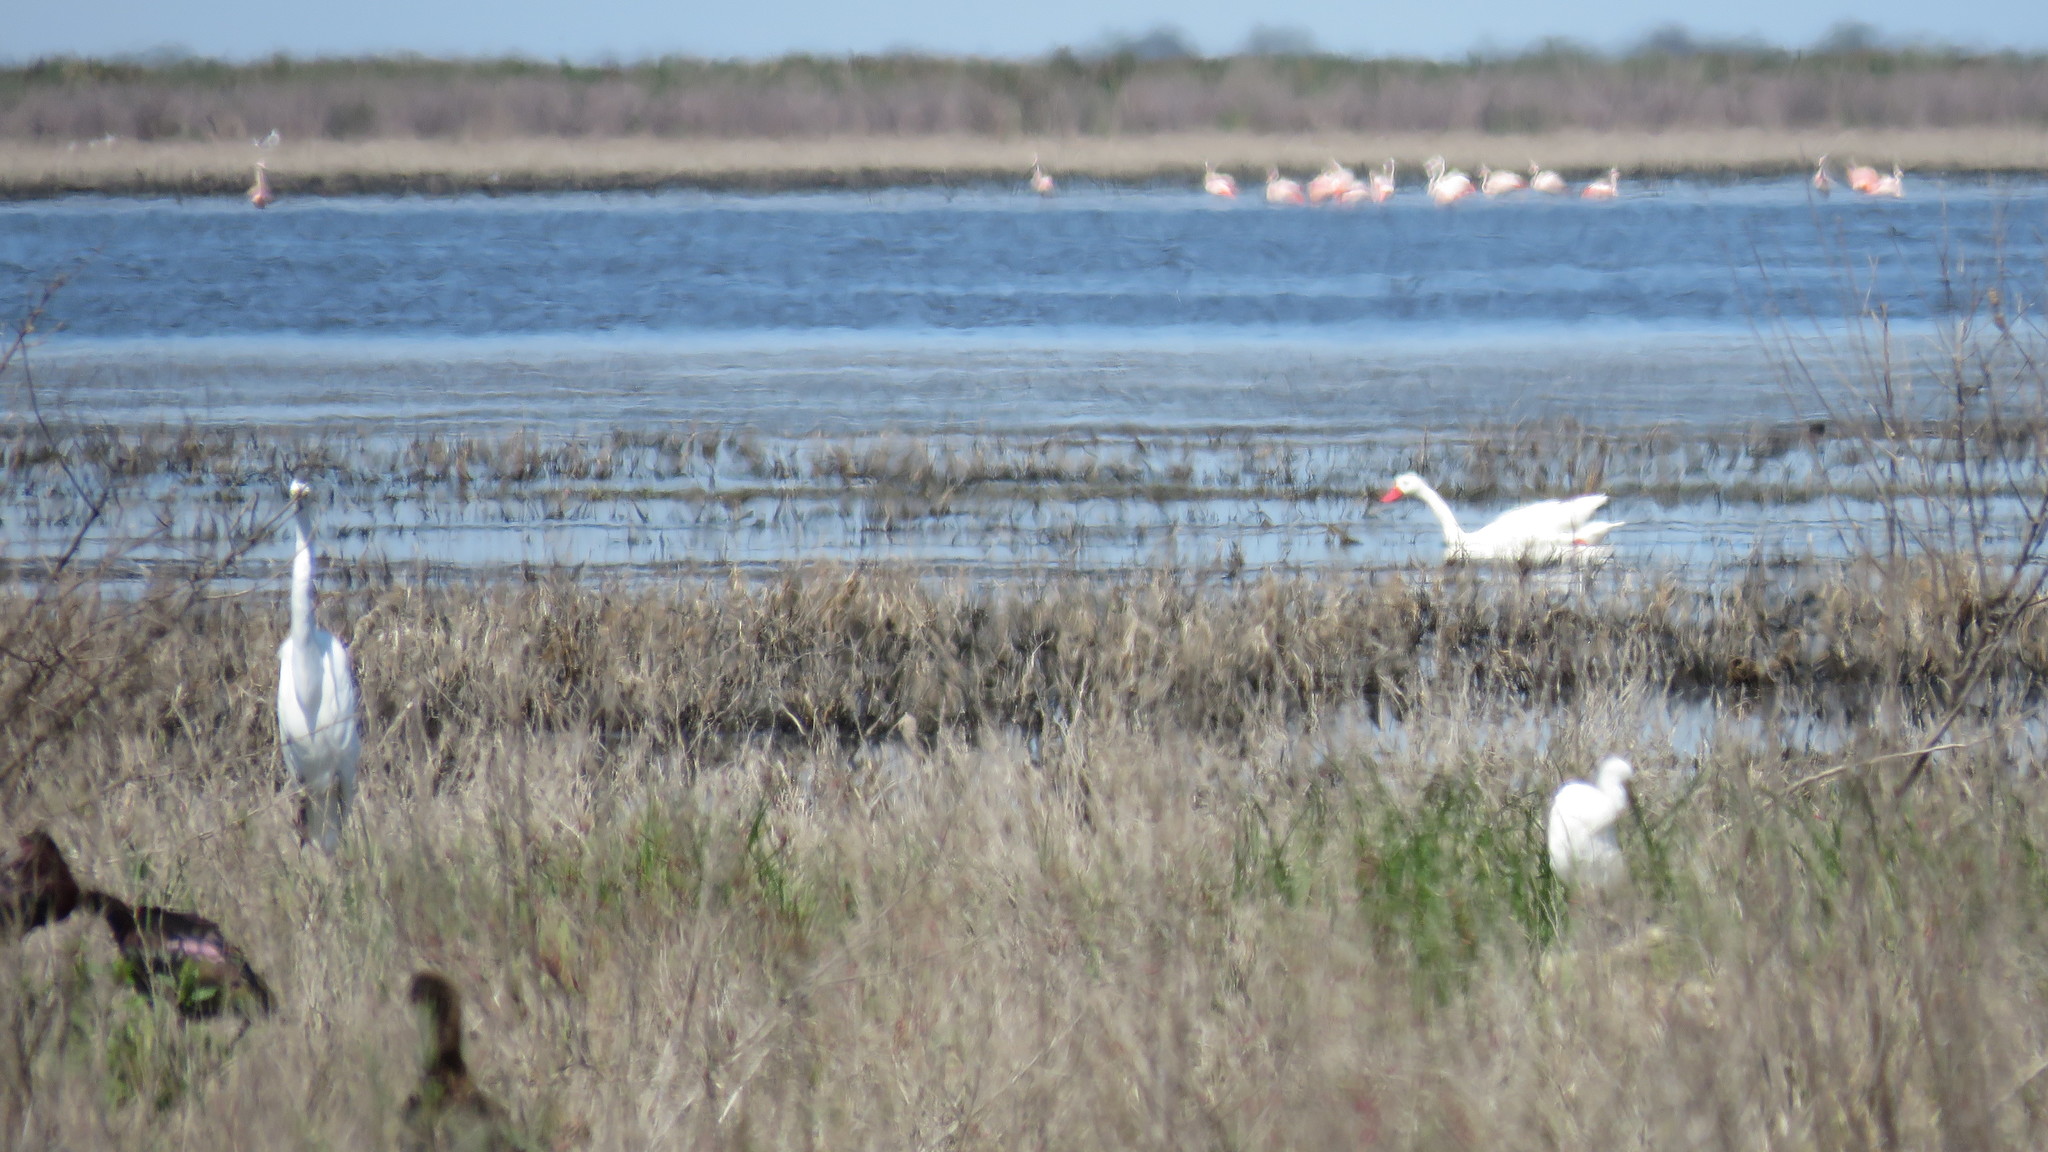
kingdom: Animalia
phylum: Chordata
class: Aves
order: Anseriformes
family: Anatidae
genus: Coscoroba
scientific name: Coscoroba coscoroba
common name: Coscoroba swan
